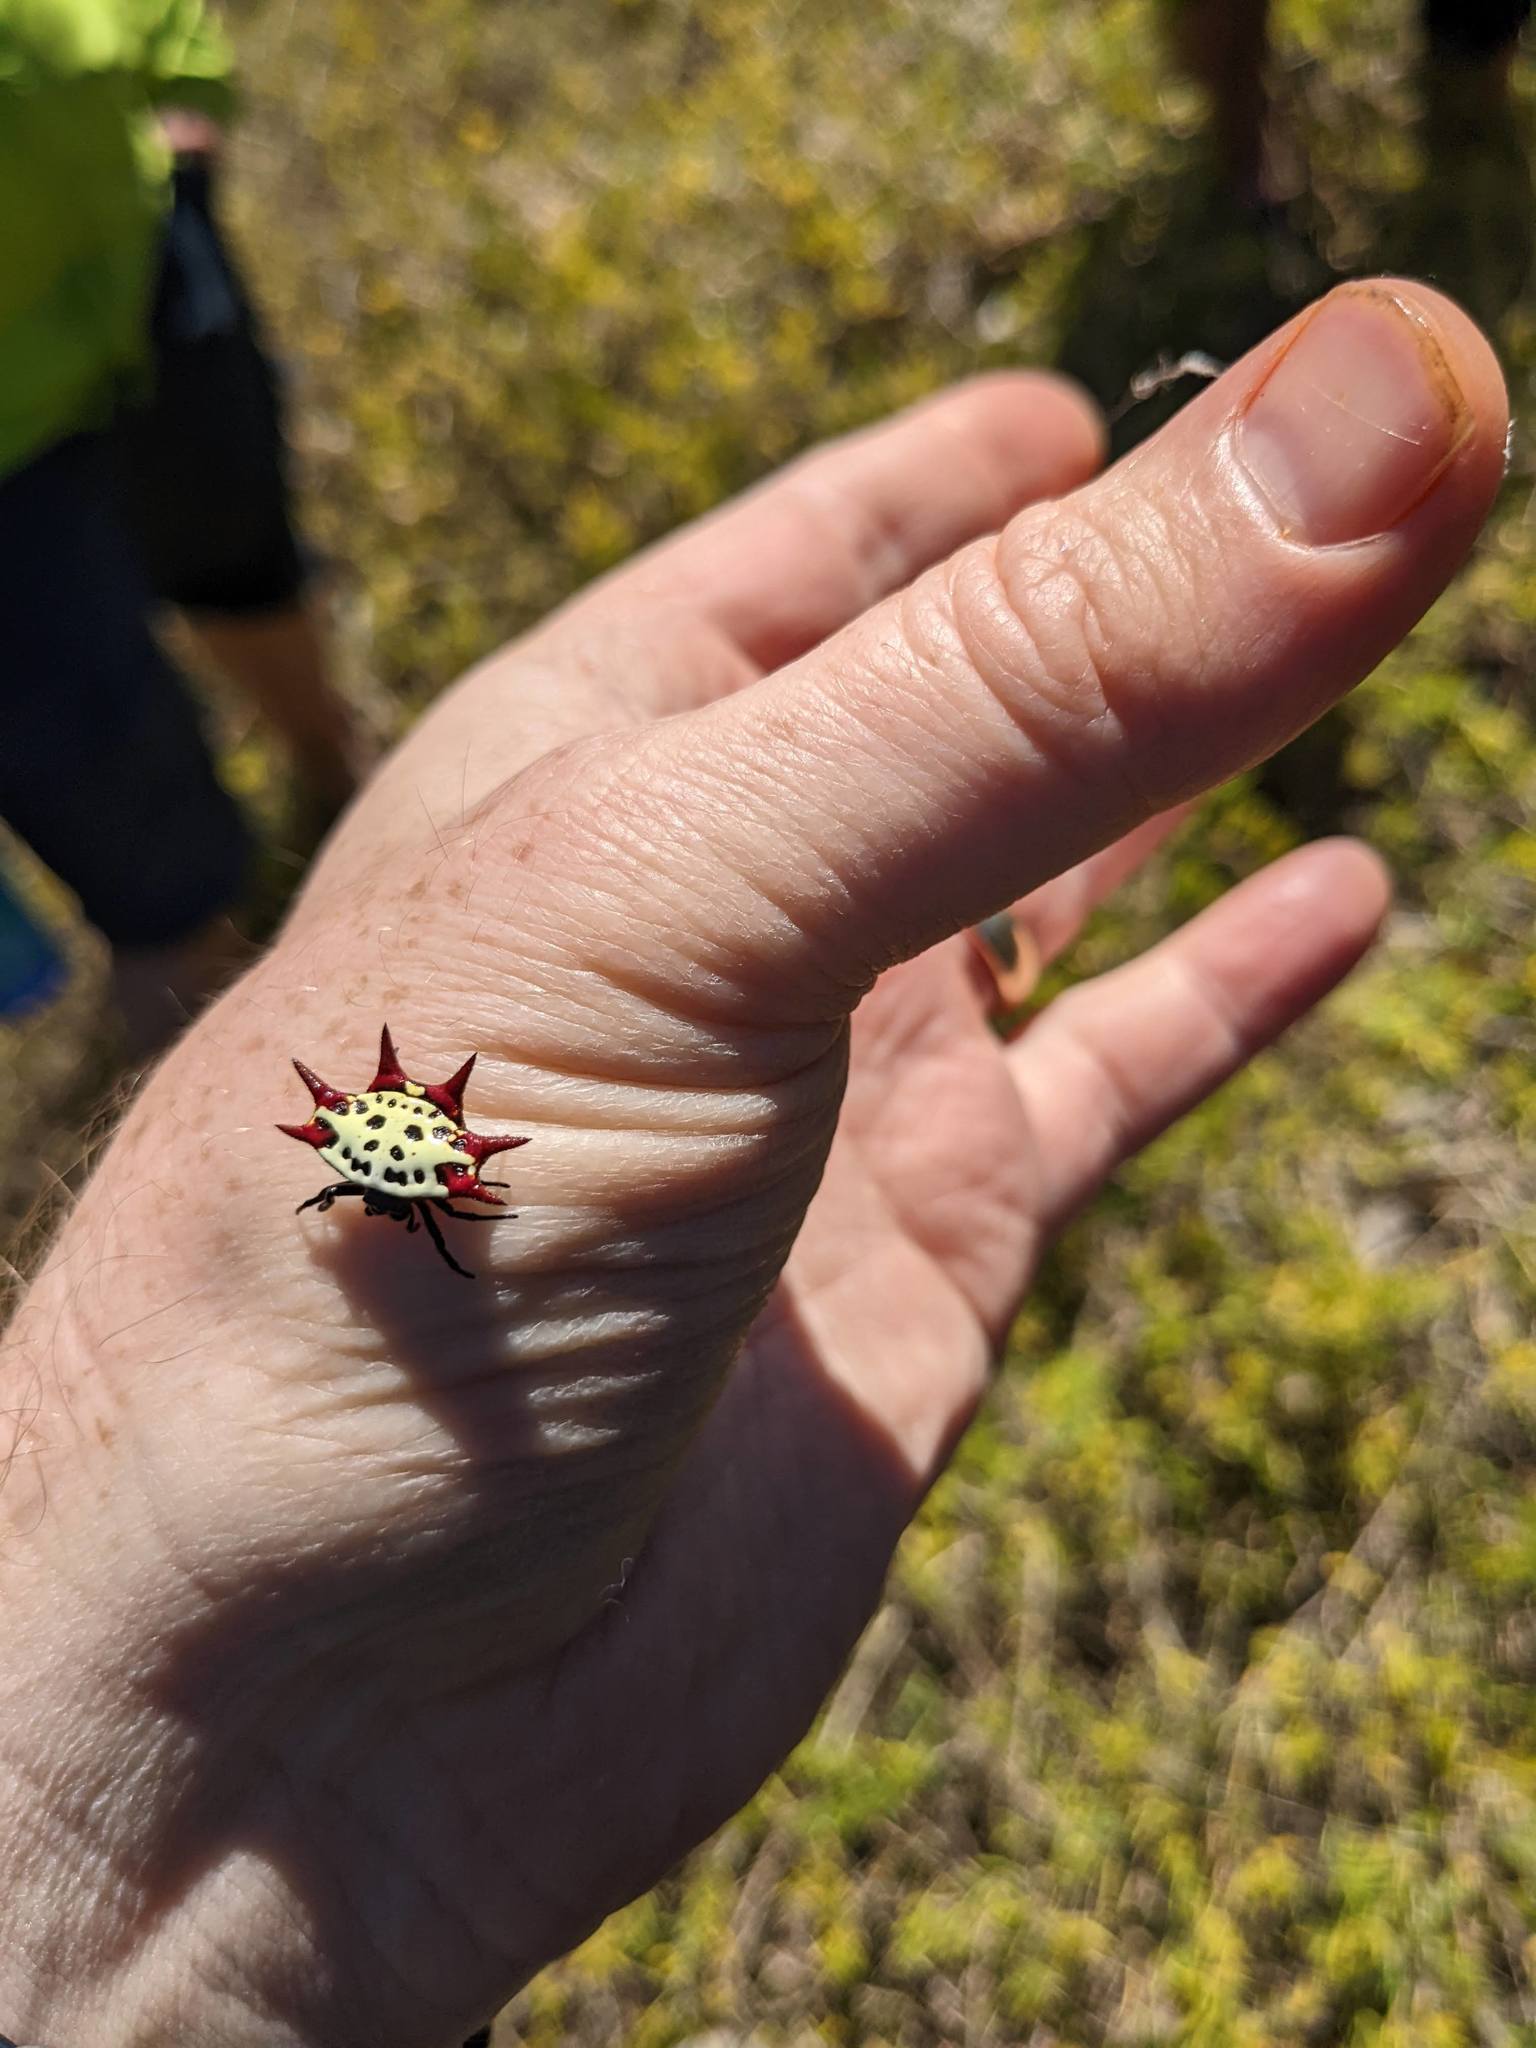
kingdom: Animalia
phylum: Arthropoda
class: Arachnida
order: Araneae
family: Araneidae
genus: Gasteracantha
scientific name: Gasteracantha cancriformis
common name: Orb weavers
